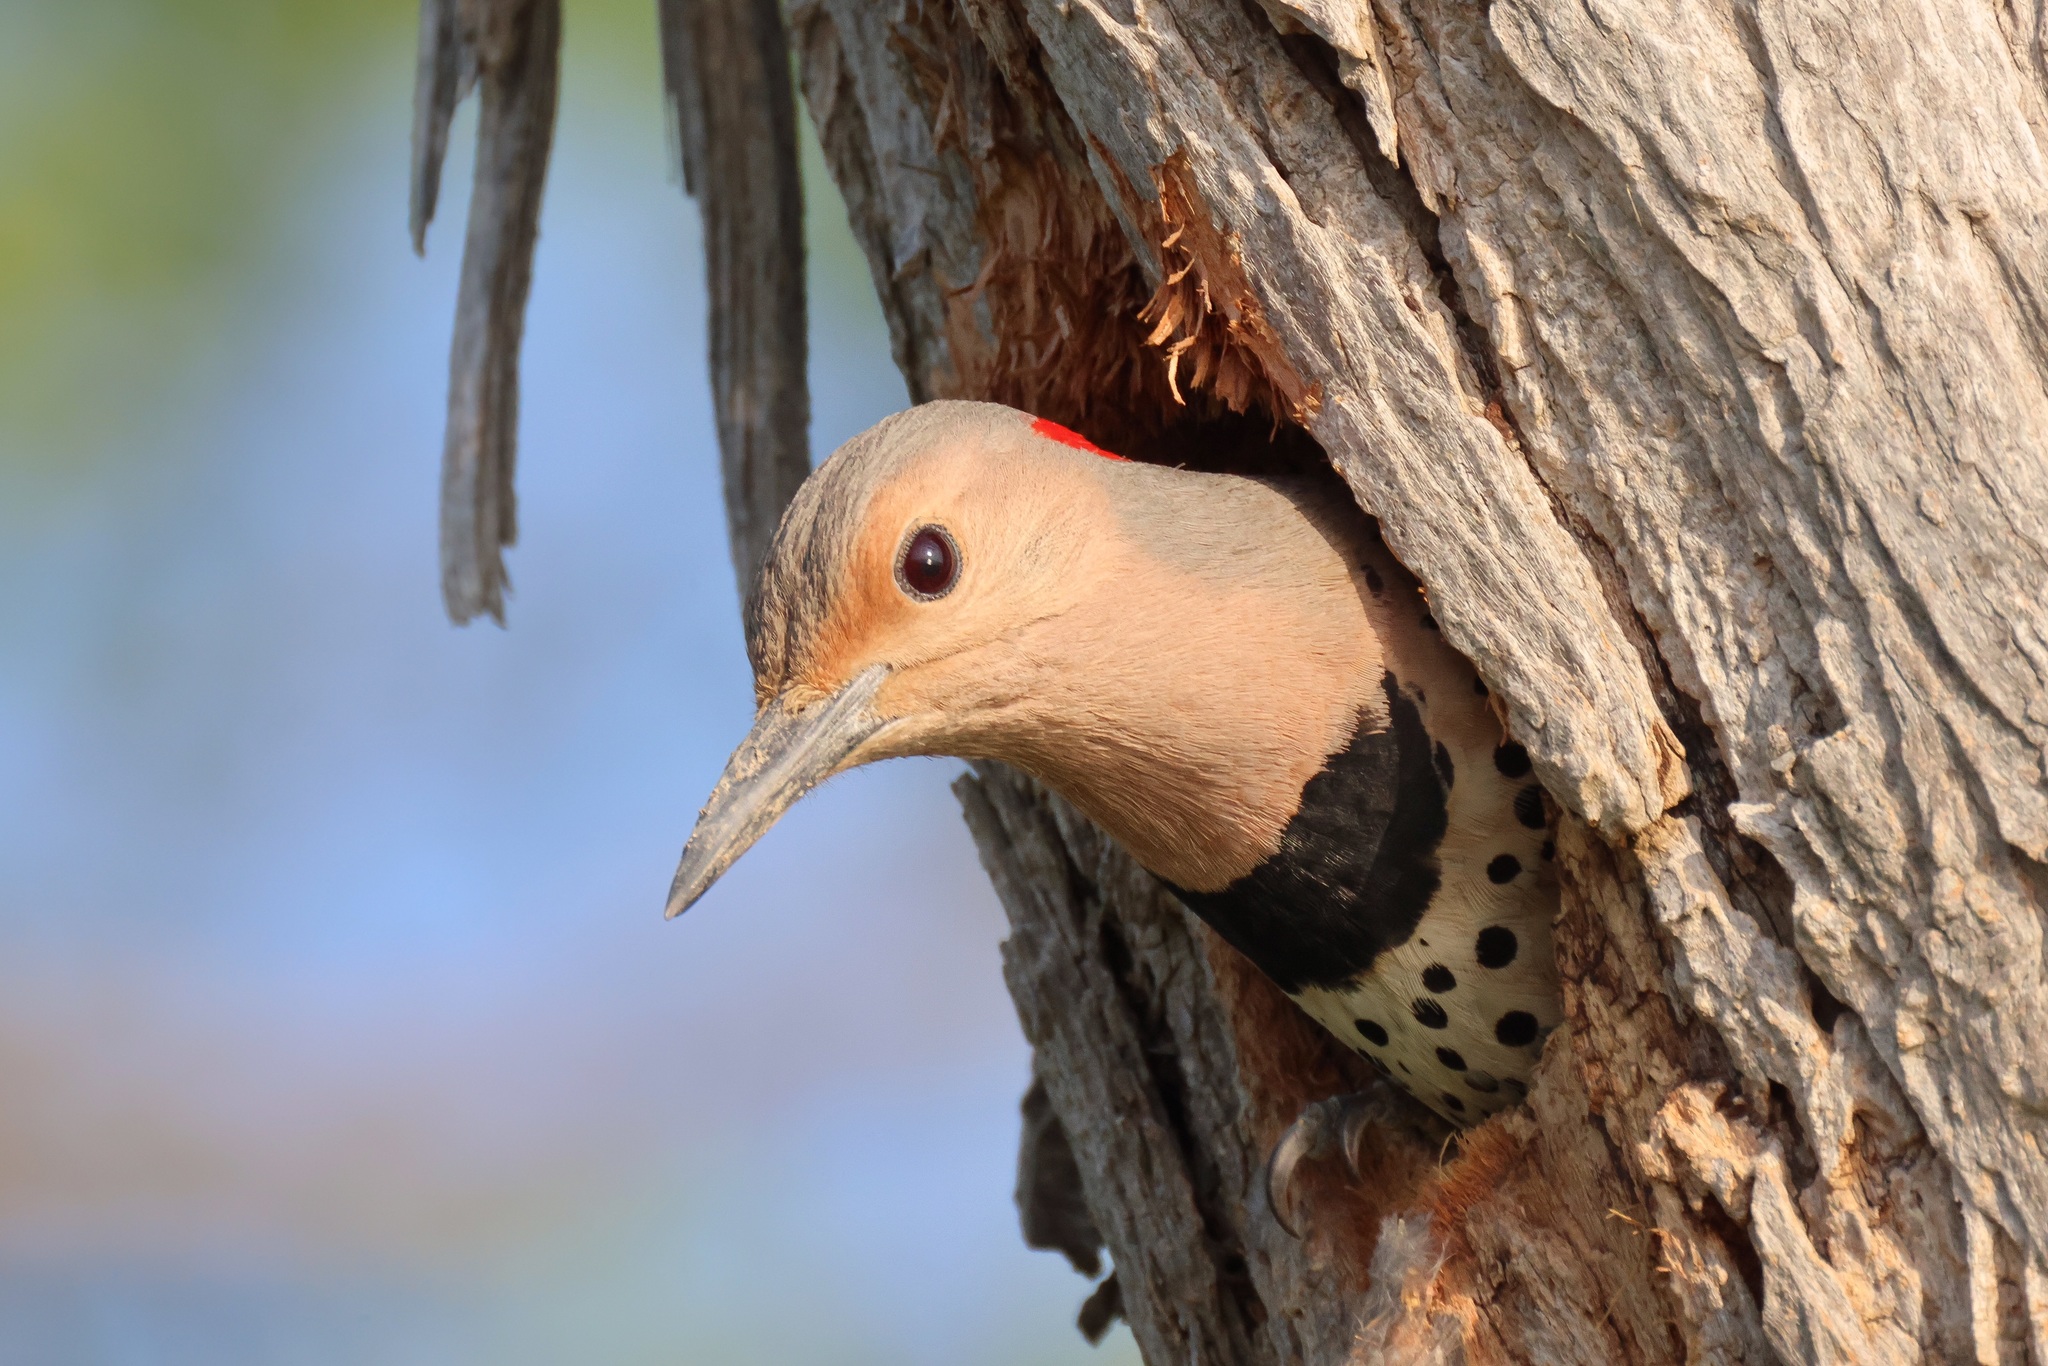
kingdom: Animalia
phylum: Chordata
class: Aves
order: Piciformes
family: Picidae
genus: Colaptes
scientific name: Colaptes auratus
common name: Northern flicker
